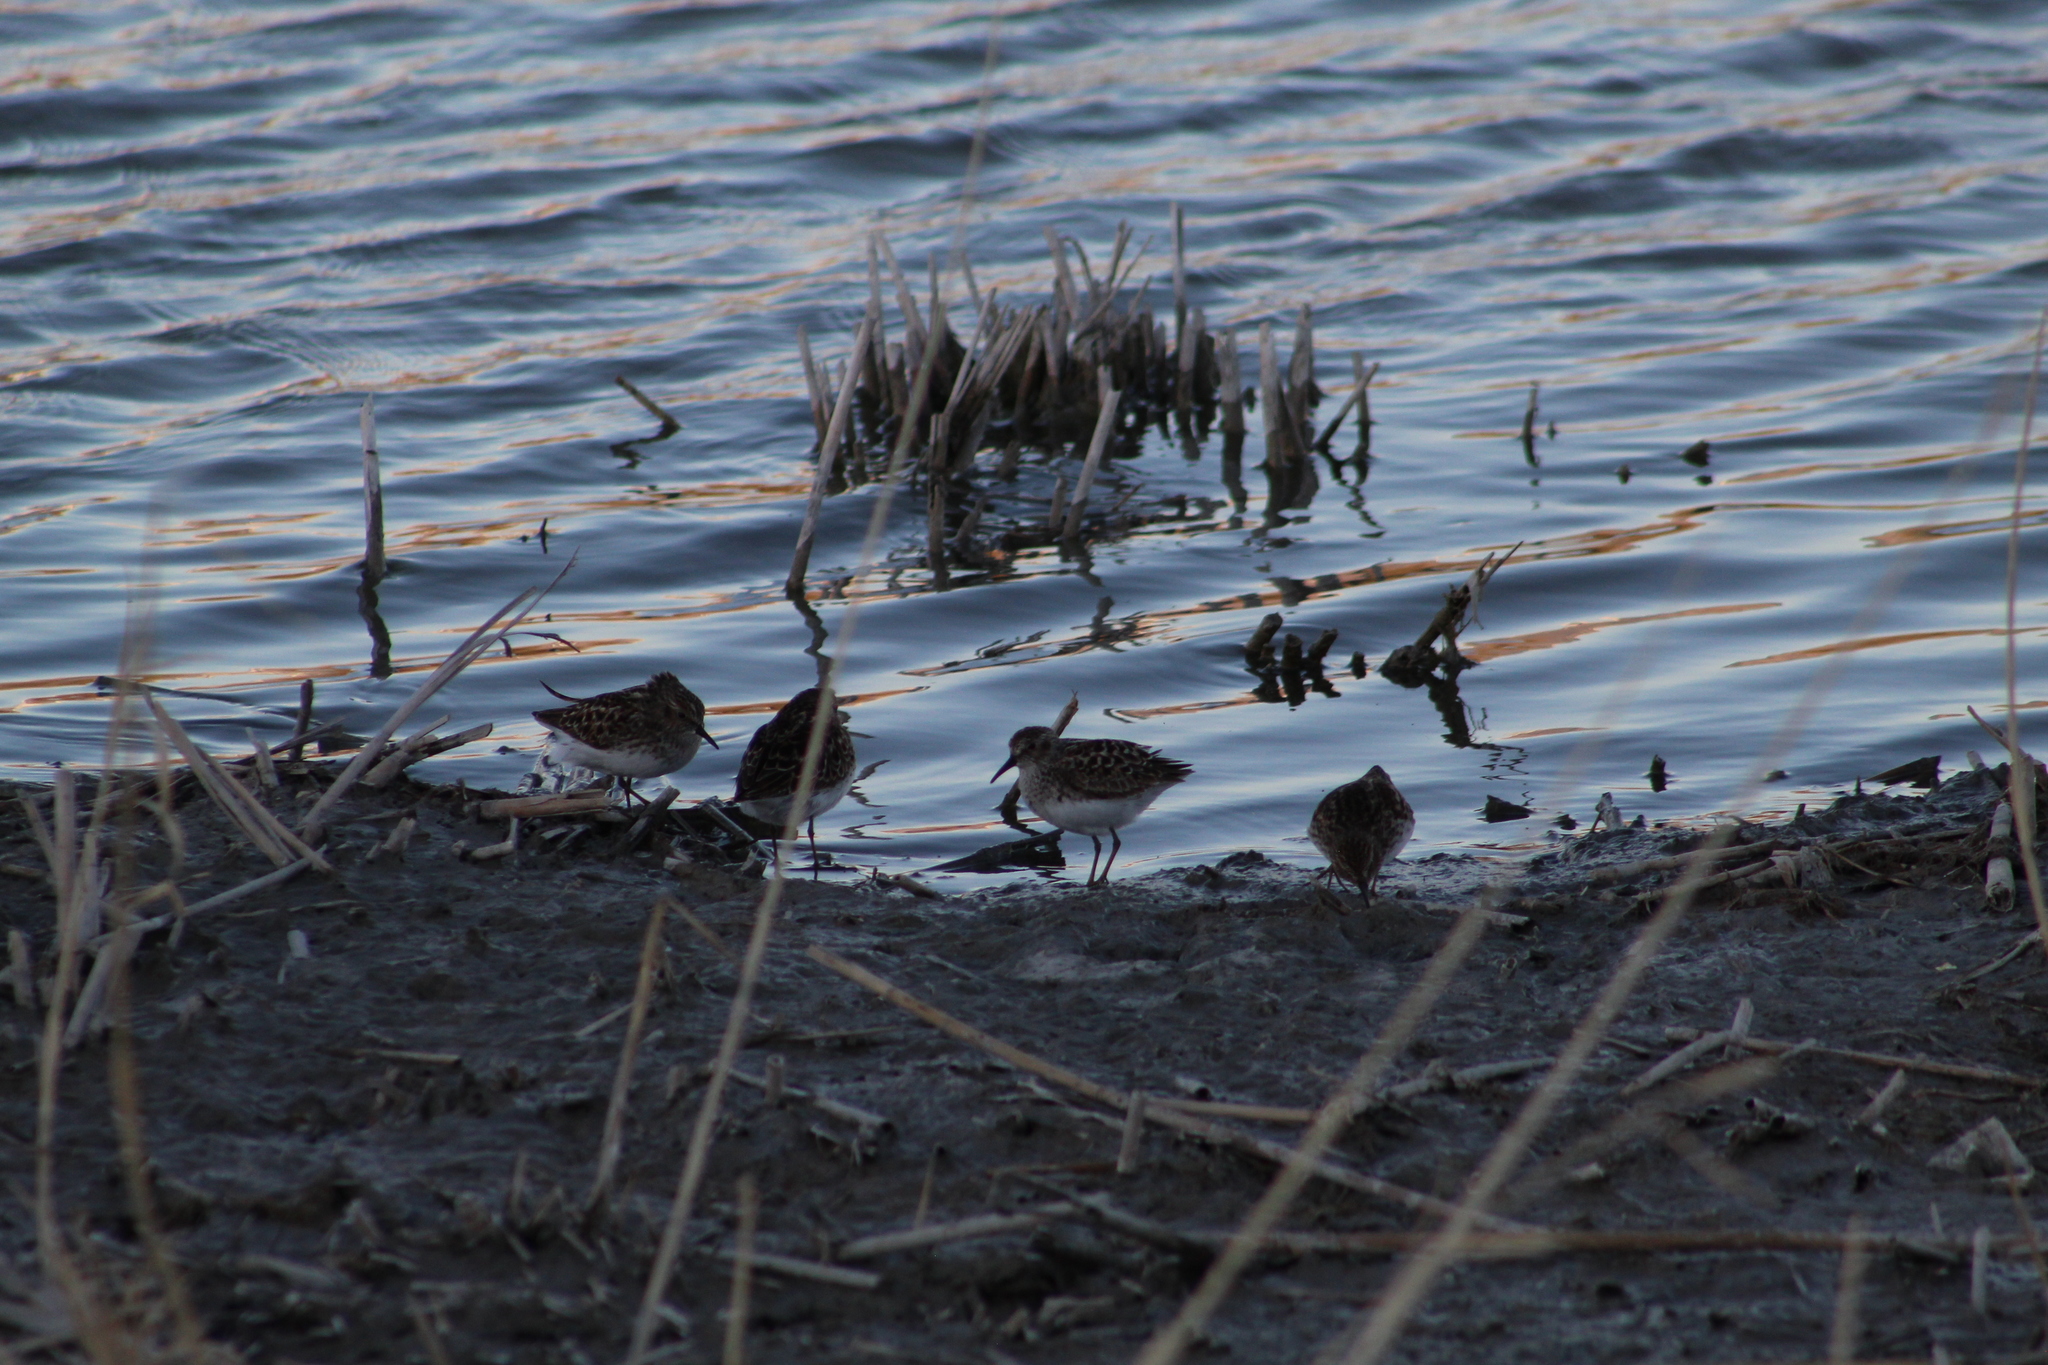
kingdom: Animalia
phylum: Chordata
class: Aves
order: Charadriiformes
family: Scolopacidae
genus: Calidris
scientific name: Calidris minutilla
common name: Least sandpiper
